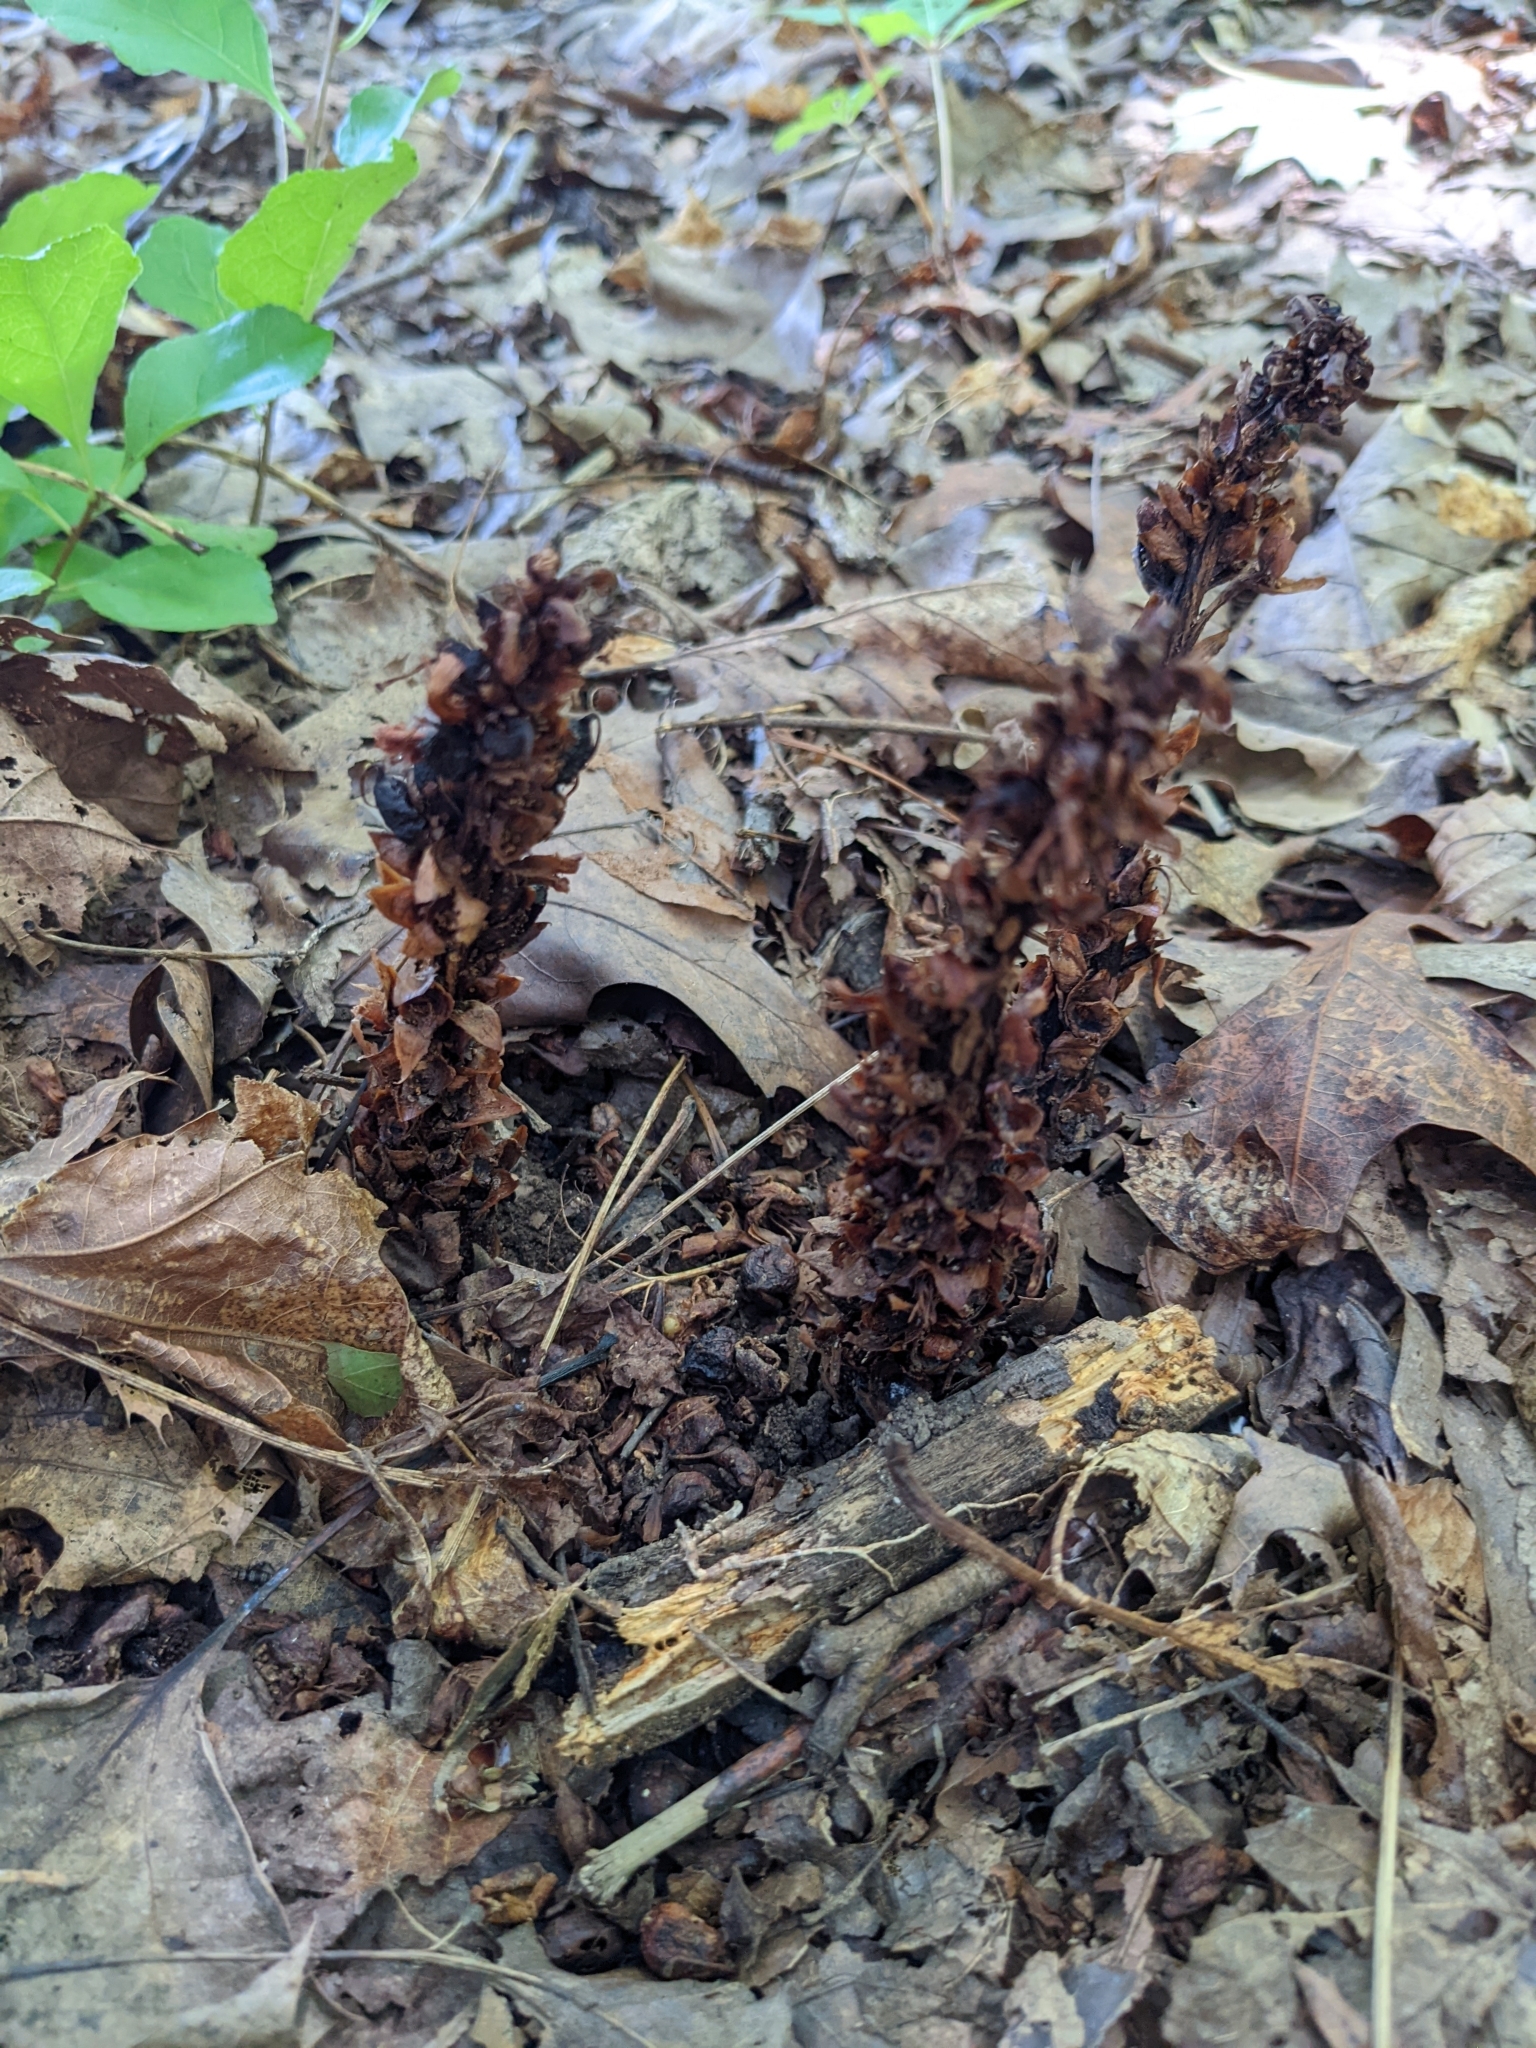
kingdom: Plantae
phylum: Tracheophyta
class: Magnoliopsida
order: Lamiales
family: Orobanchaceae
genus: Conopholis
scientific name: Conopholis americana
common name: American cancer-root
